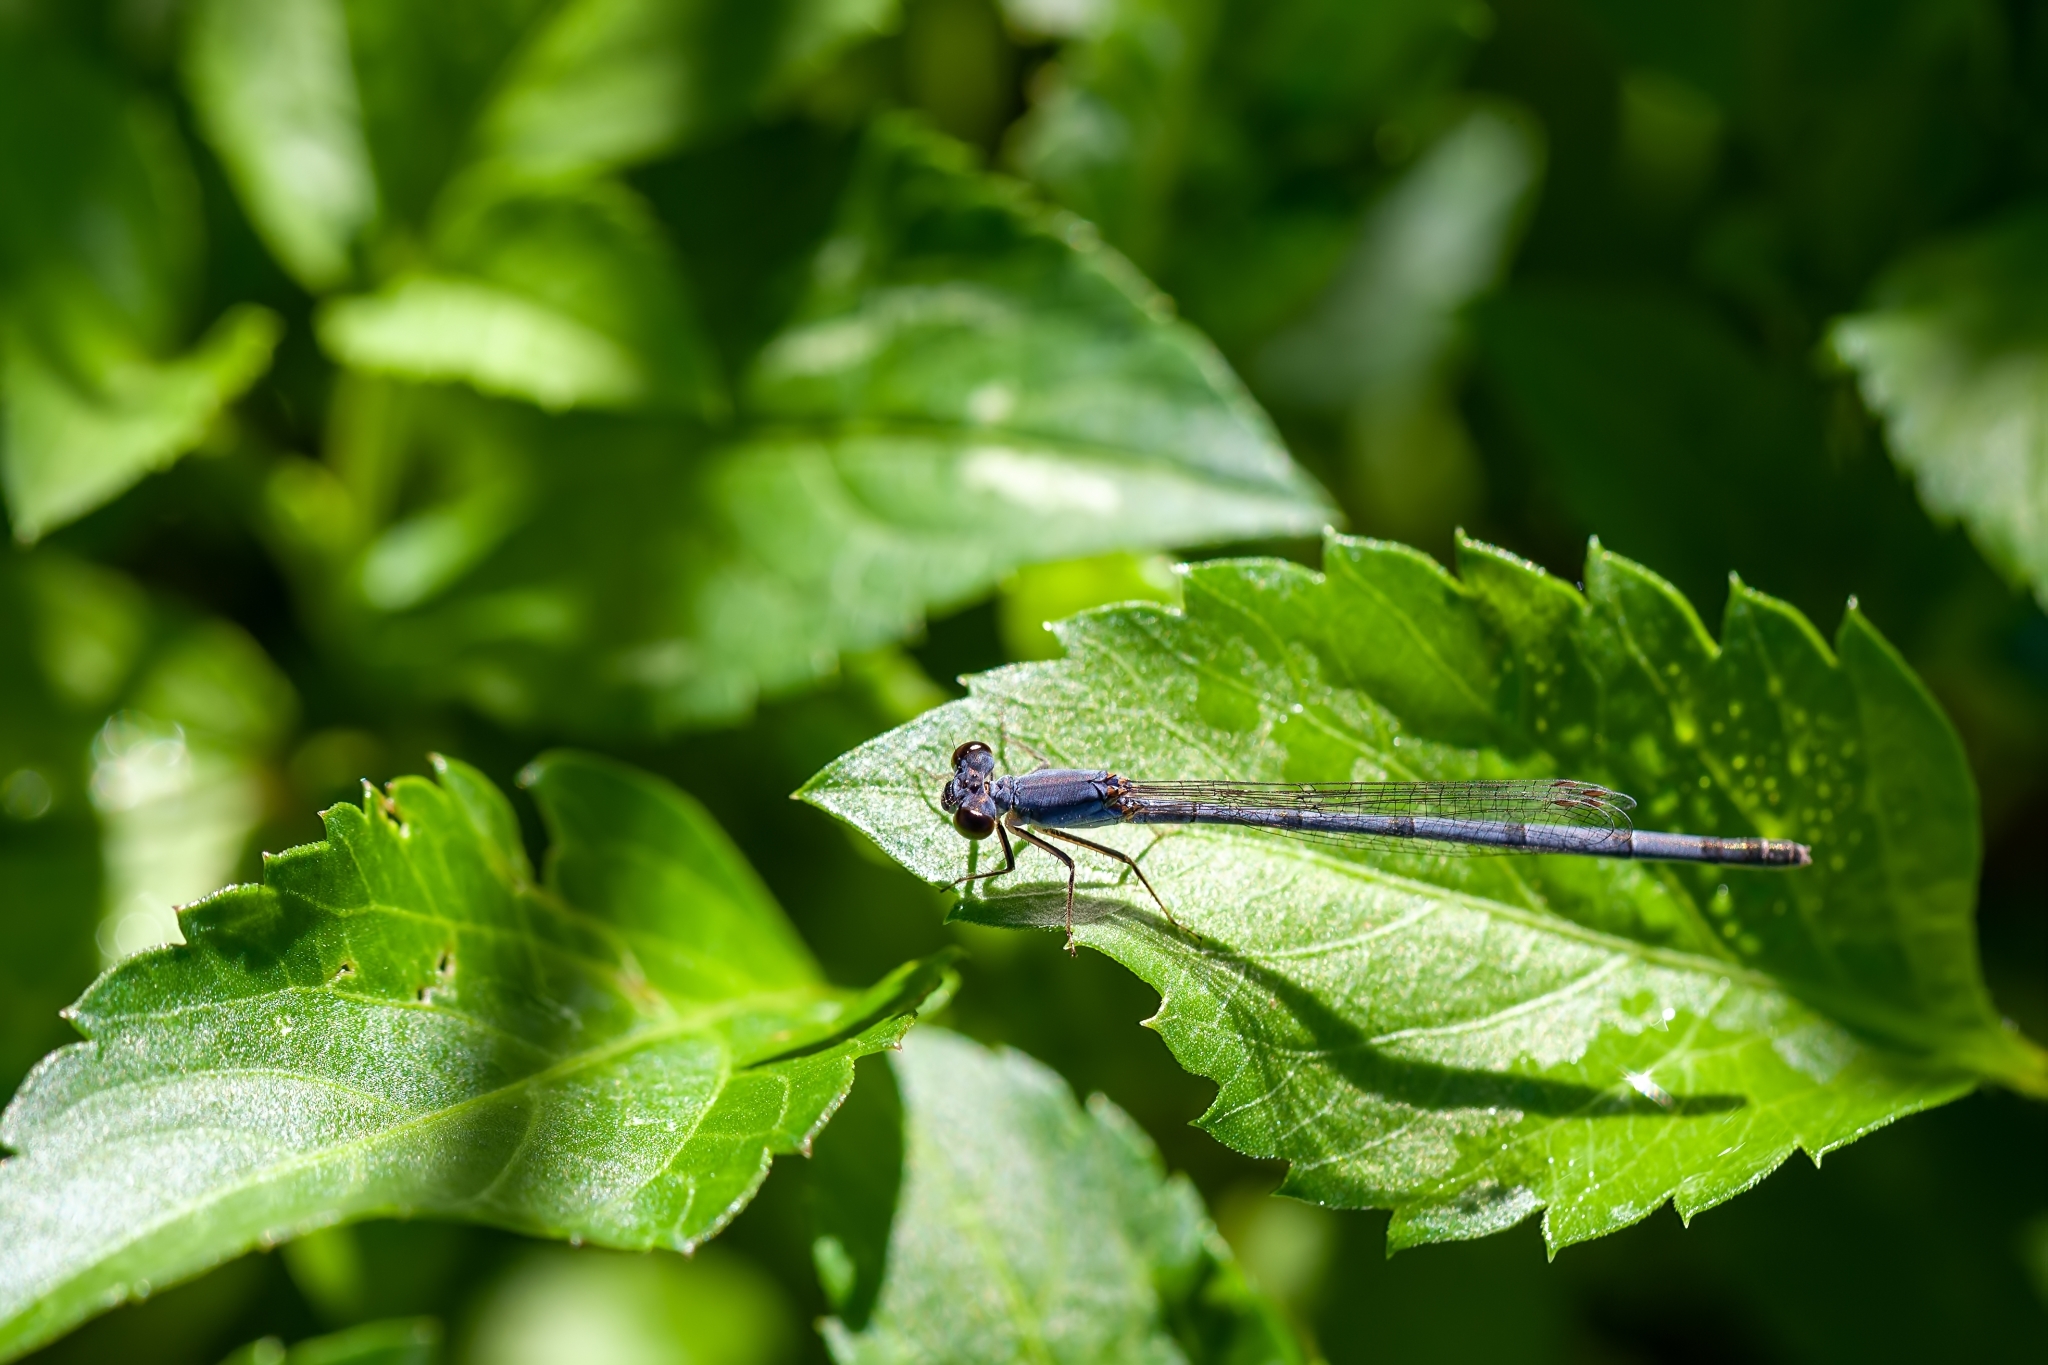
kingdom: Animalia
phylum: Arthropoda
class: Insecta
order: Odonata
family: Coenagrionidae
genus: Ischnura
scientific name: Ischnura posita
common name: Fragile forktail
